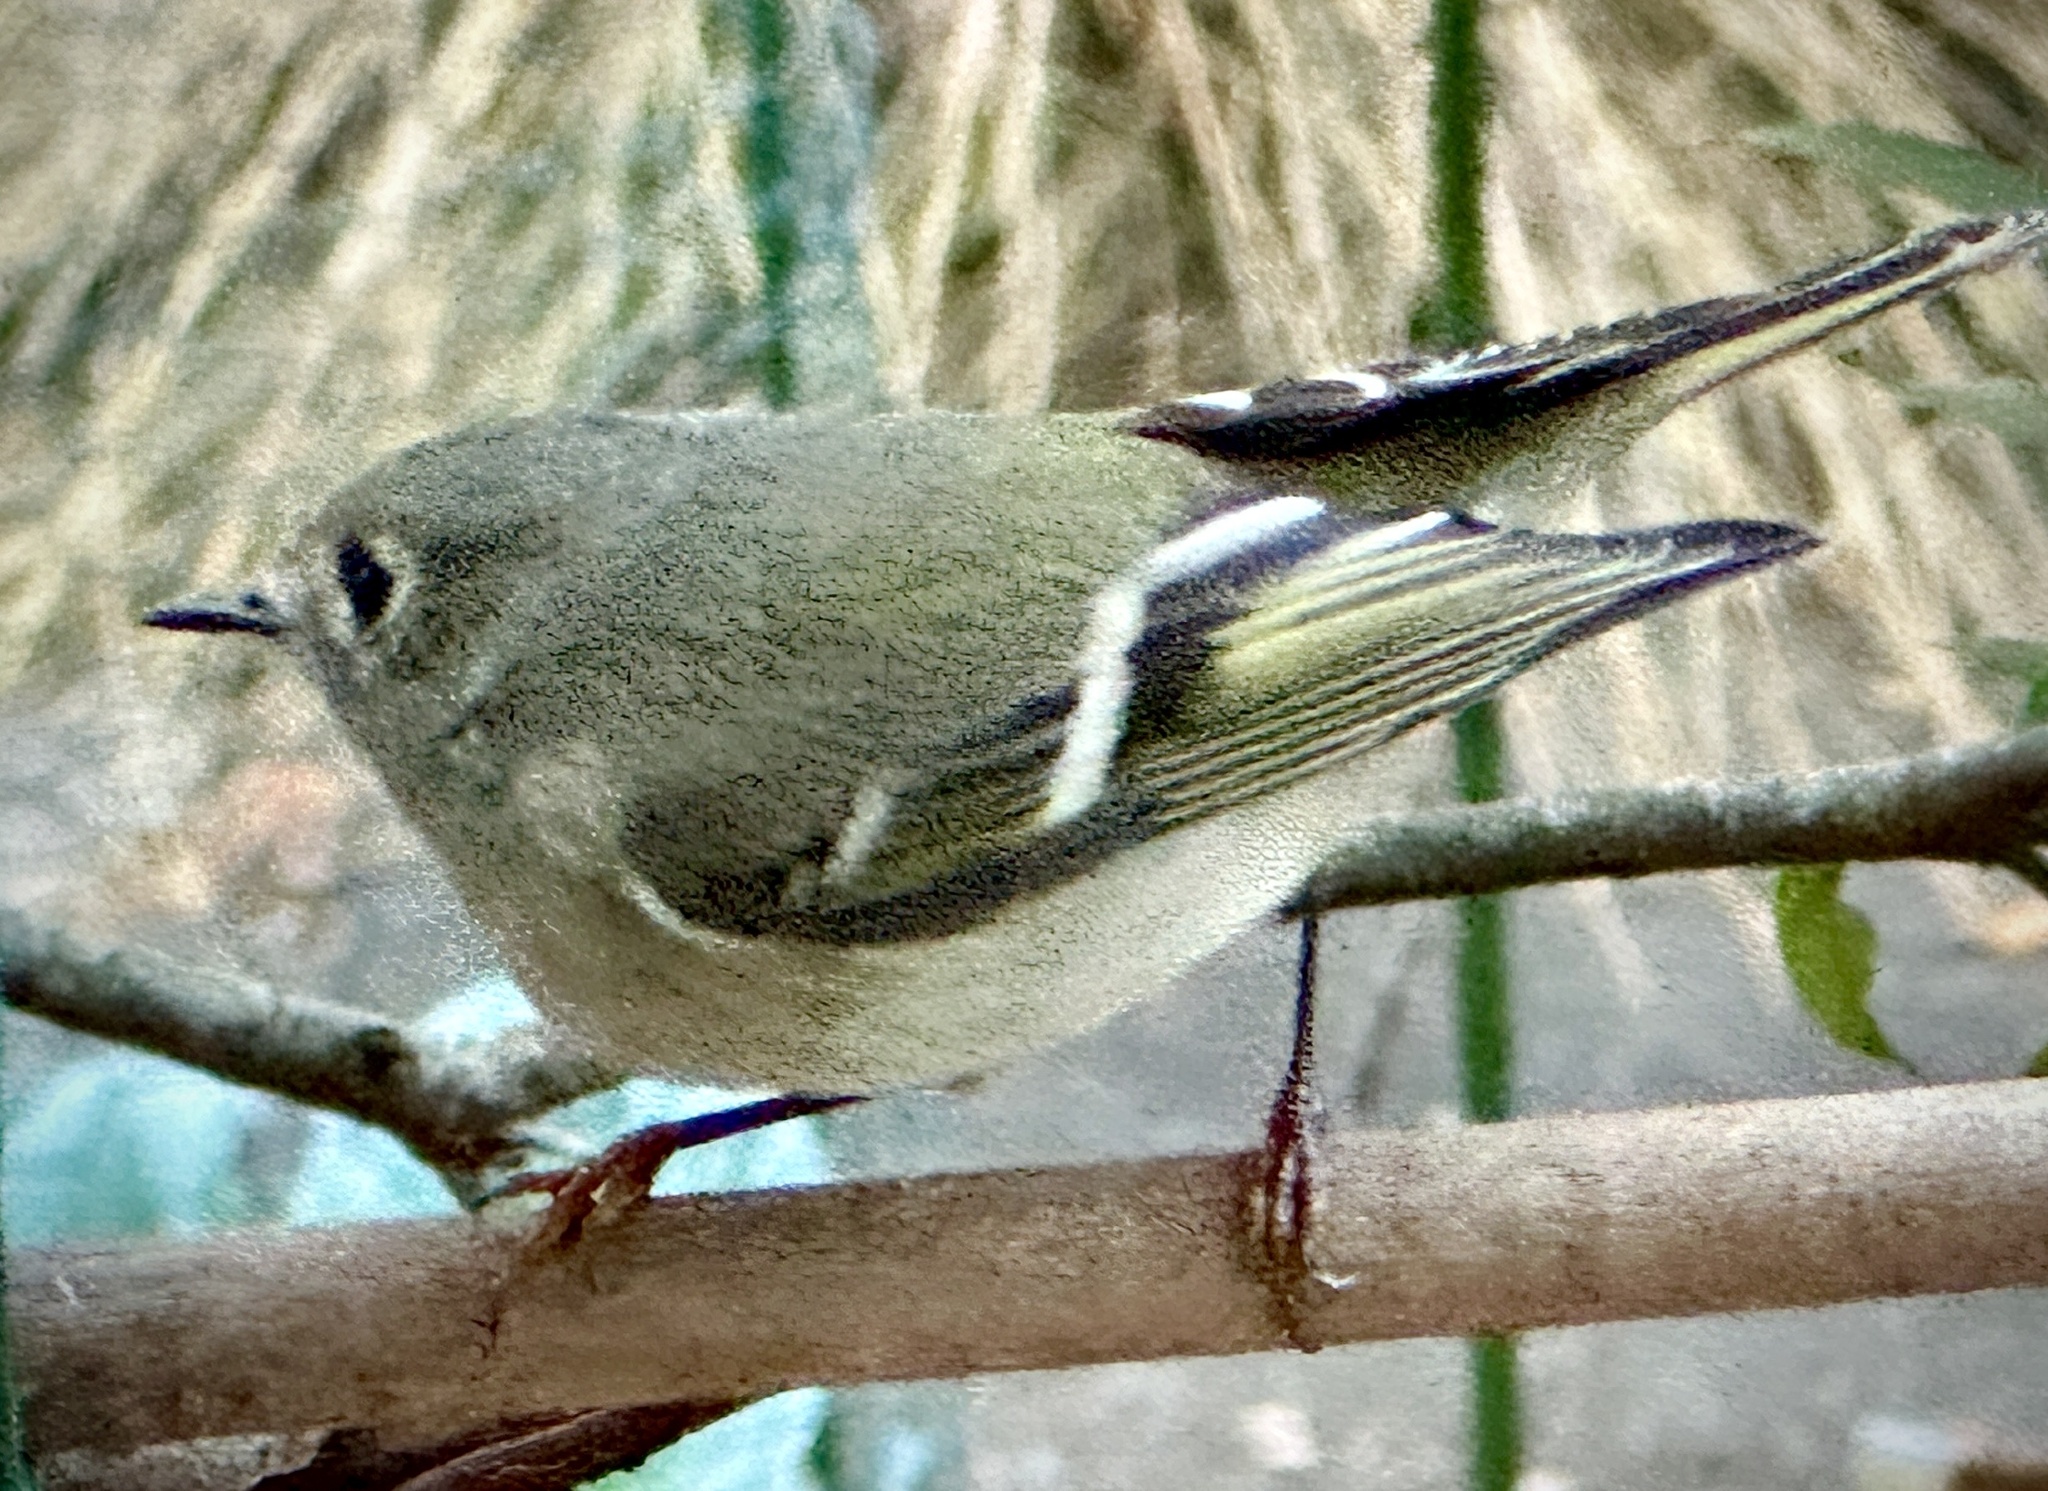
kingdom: Animalia
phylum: Chordata
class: Aves
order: Passeriformes
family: Regulidae
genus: Regulus
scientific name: Regulus calendula
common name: Ruby-crowned kinglet
